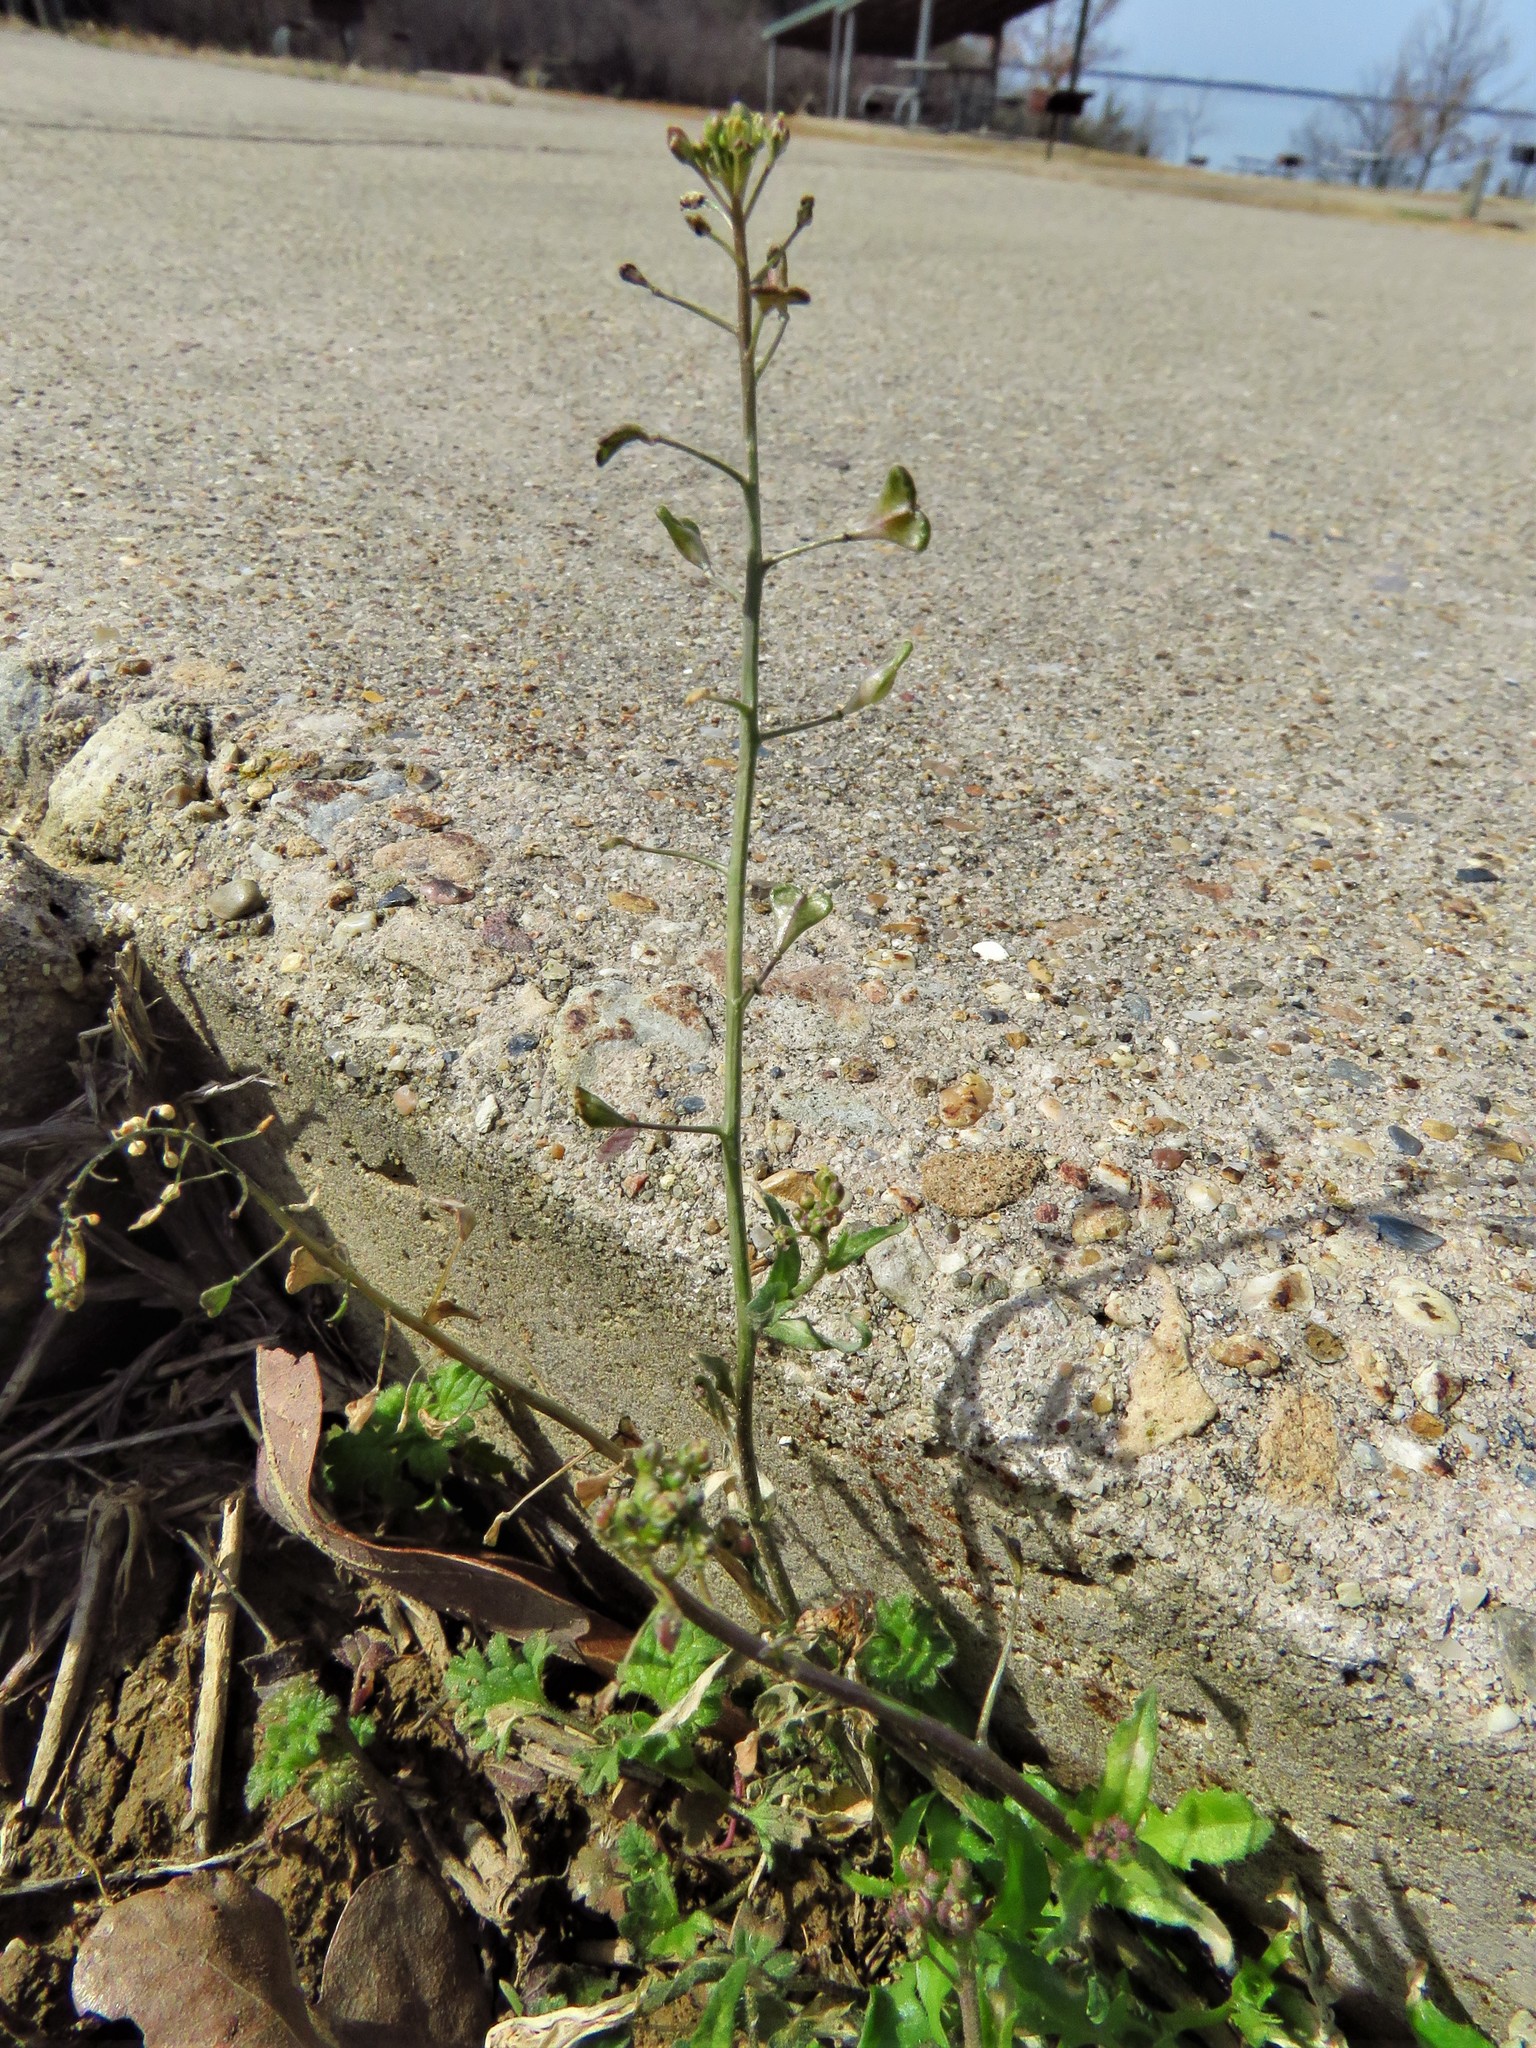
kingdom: Plantae
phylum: Tracheophyta
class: Magnoliopsida
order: Brassicales
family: Brassicaceae
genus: Capsella
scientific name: Capsella bursa-pastoris
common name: Shepherd's purse
